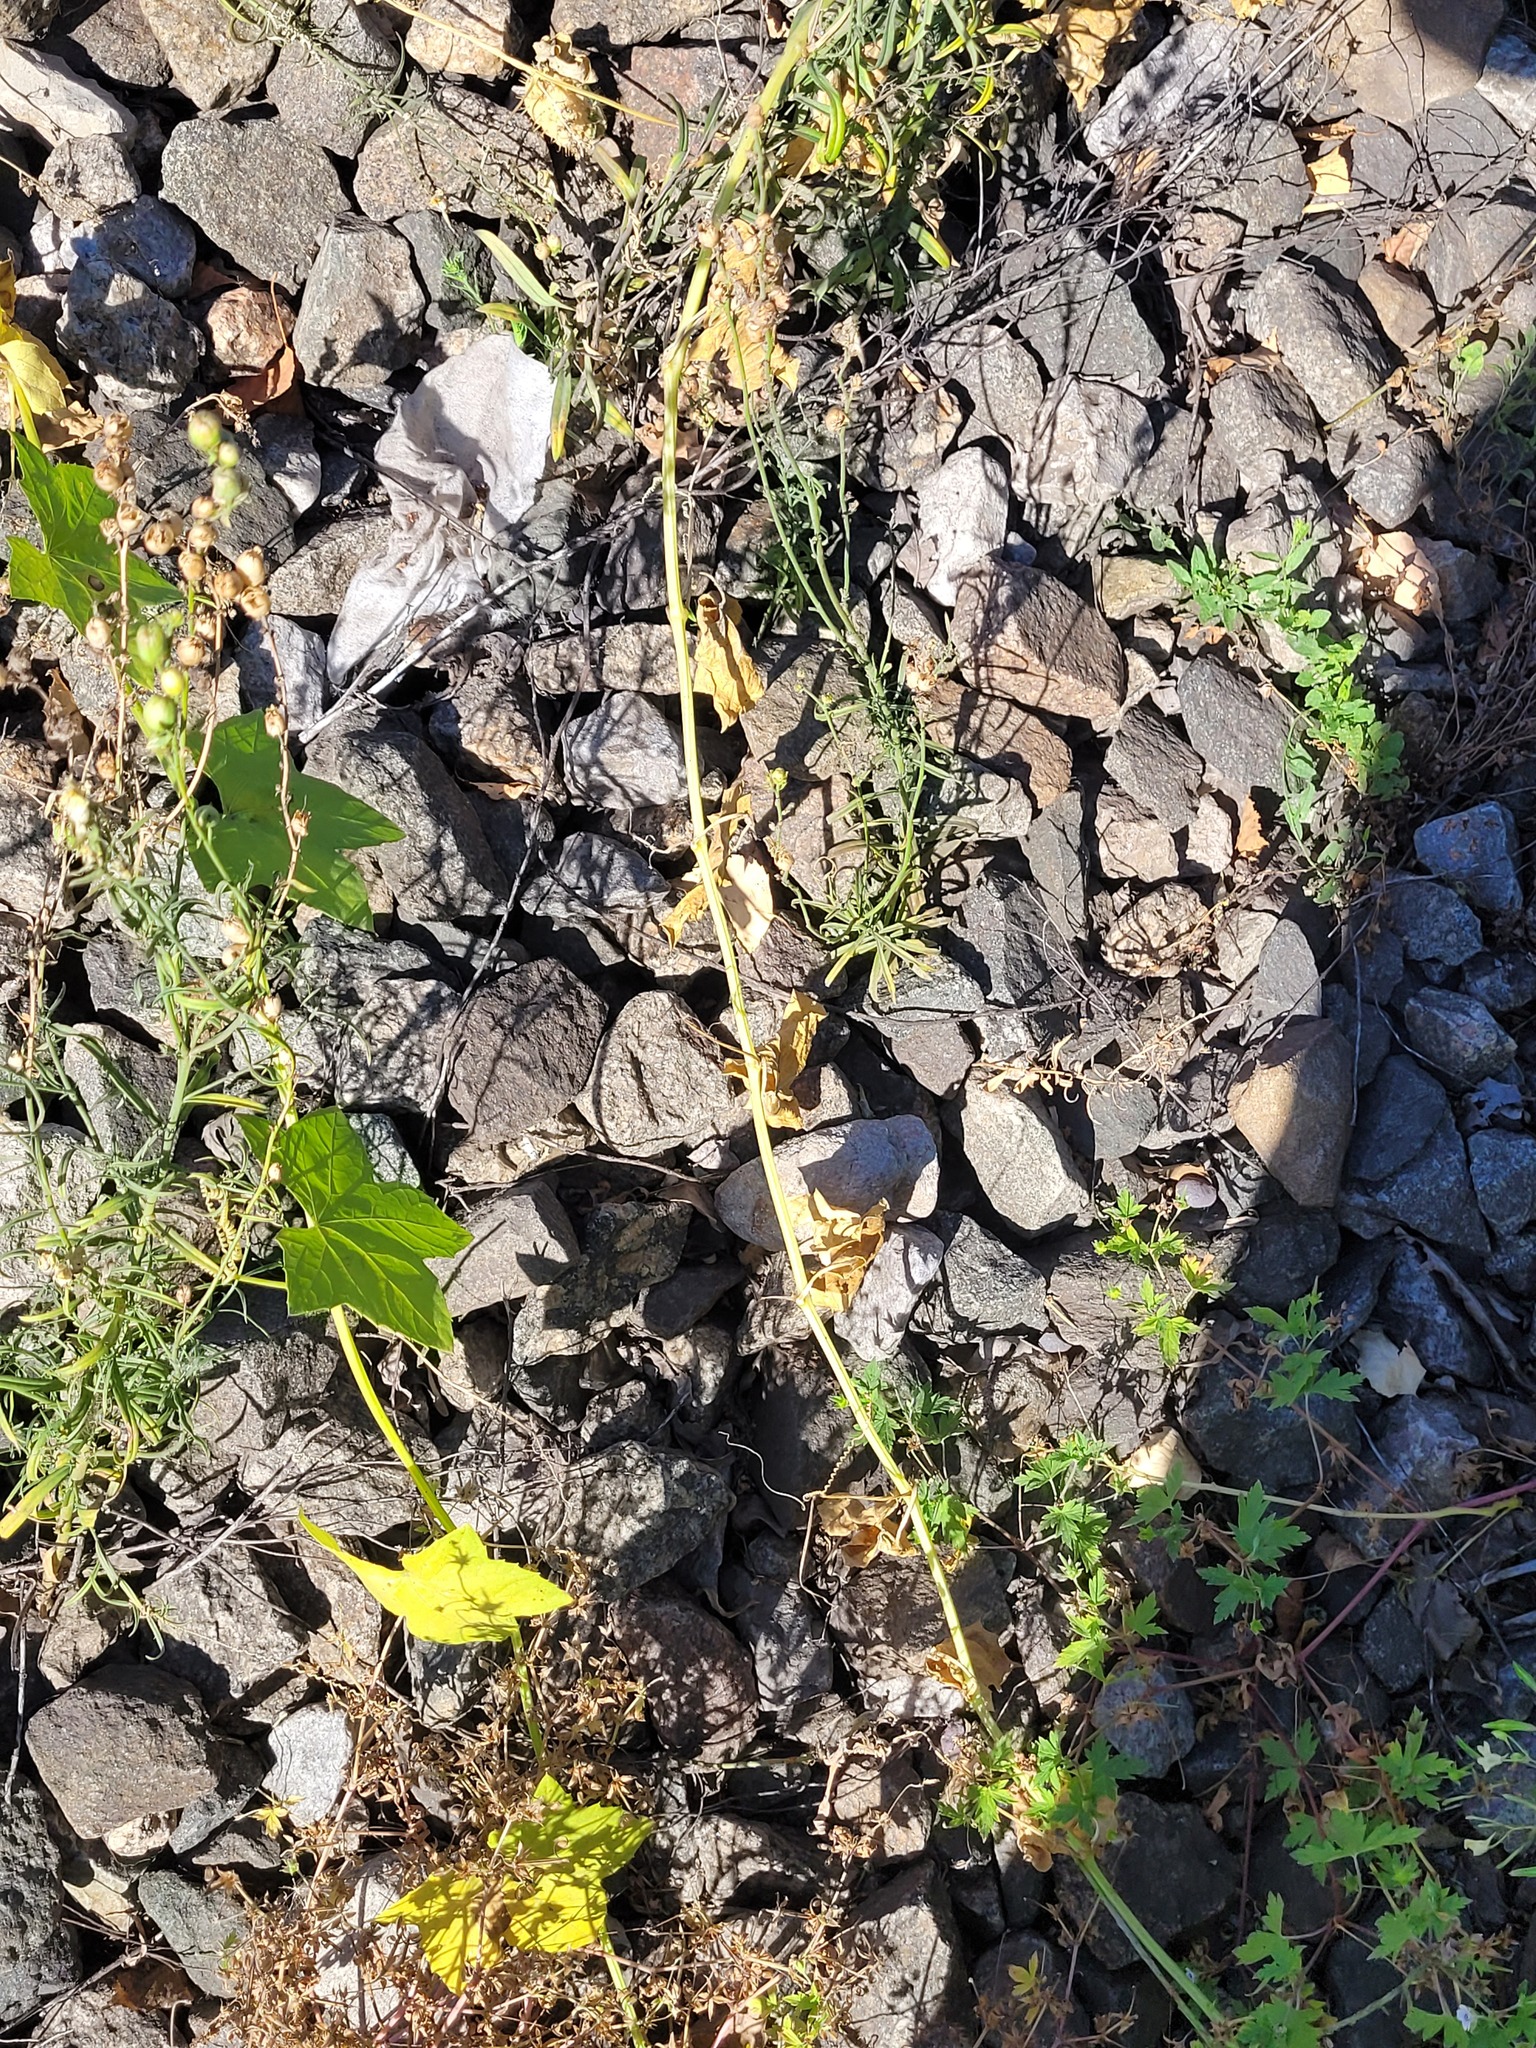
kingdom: Plantae
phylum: Tracheophyta
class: Magnoliopsida
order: Cucurbitales
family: Cucurbitaceae
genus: Echinocystis
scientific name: Echinocystis lobata
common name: Wild cucumber
